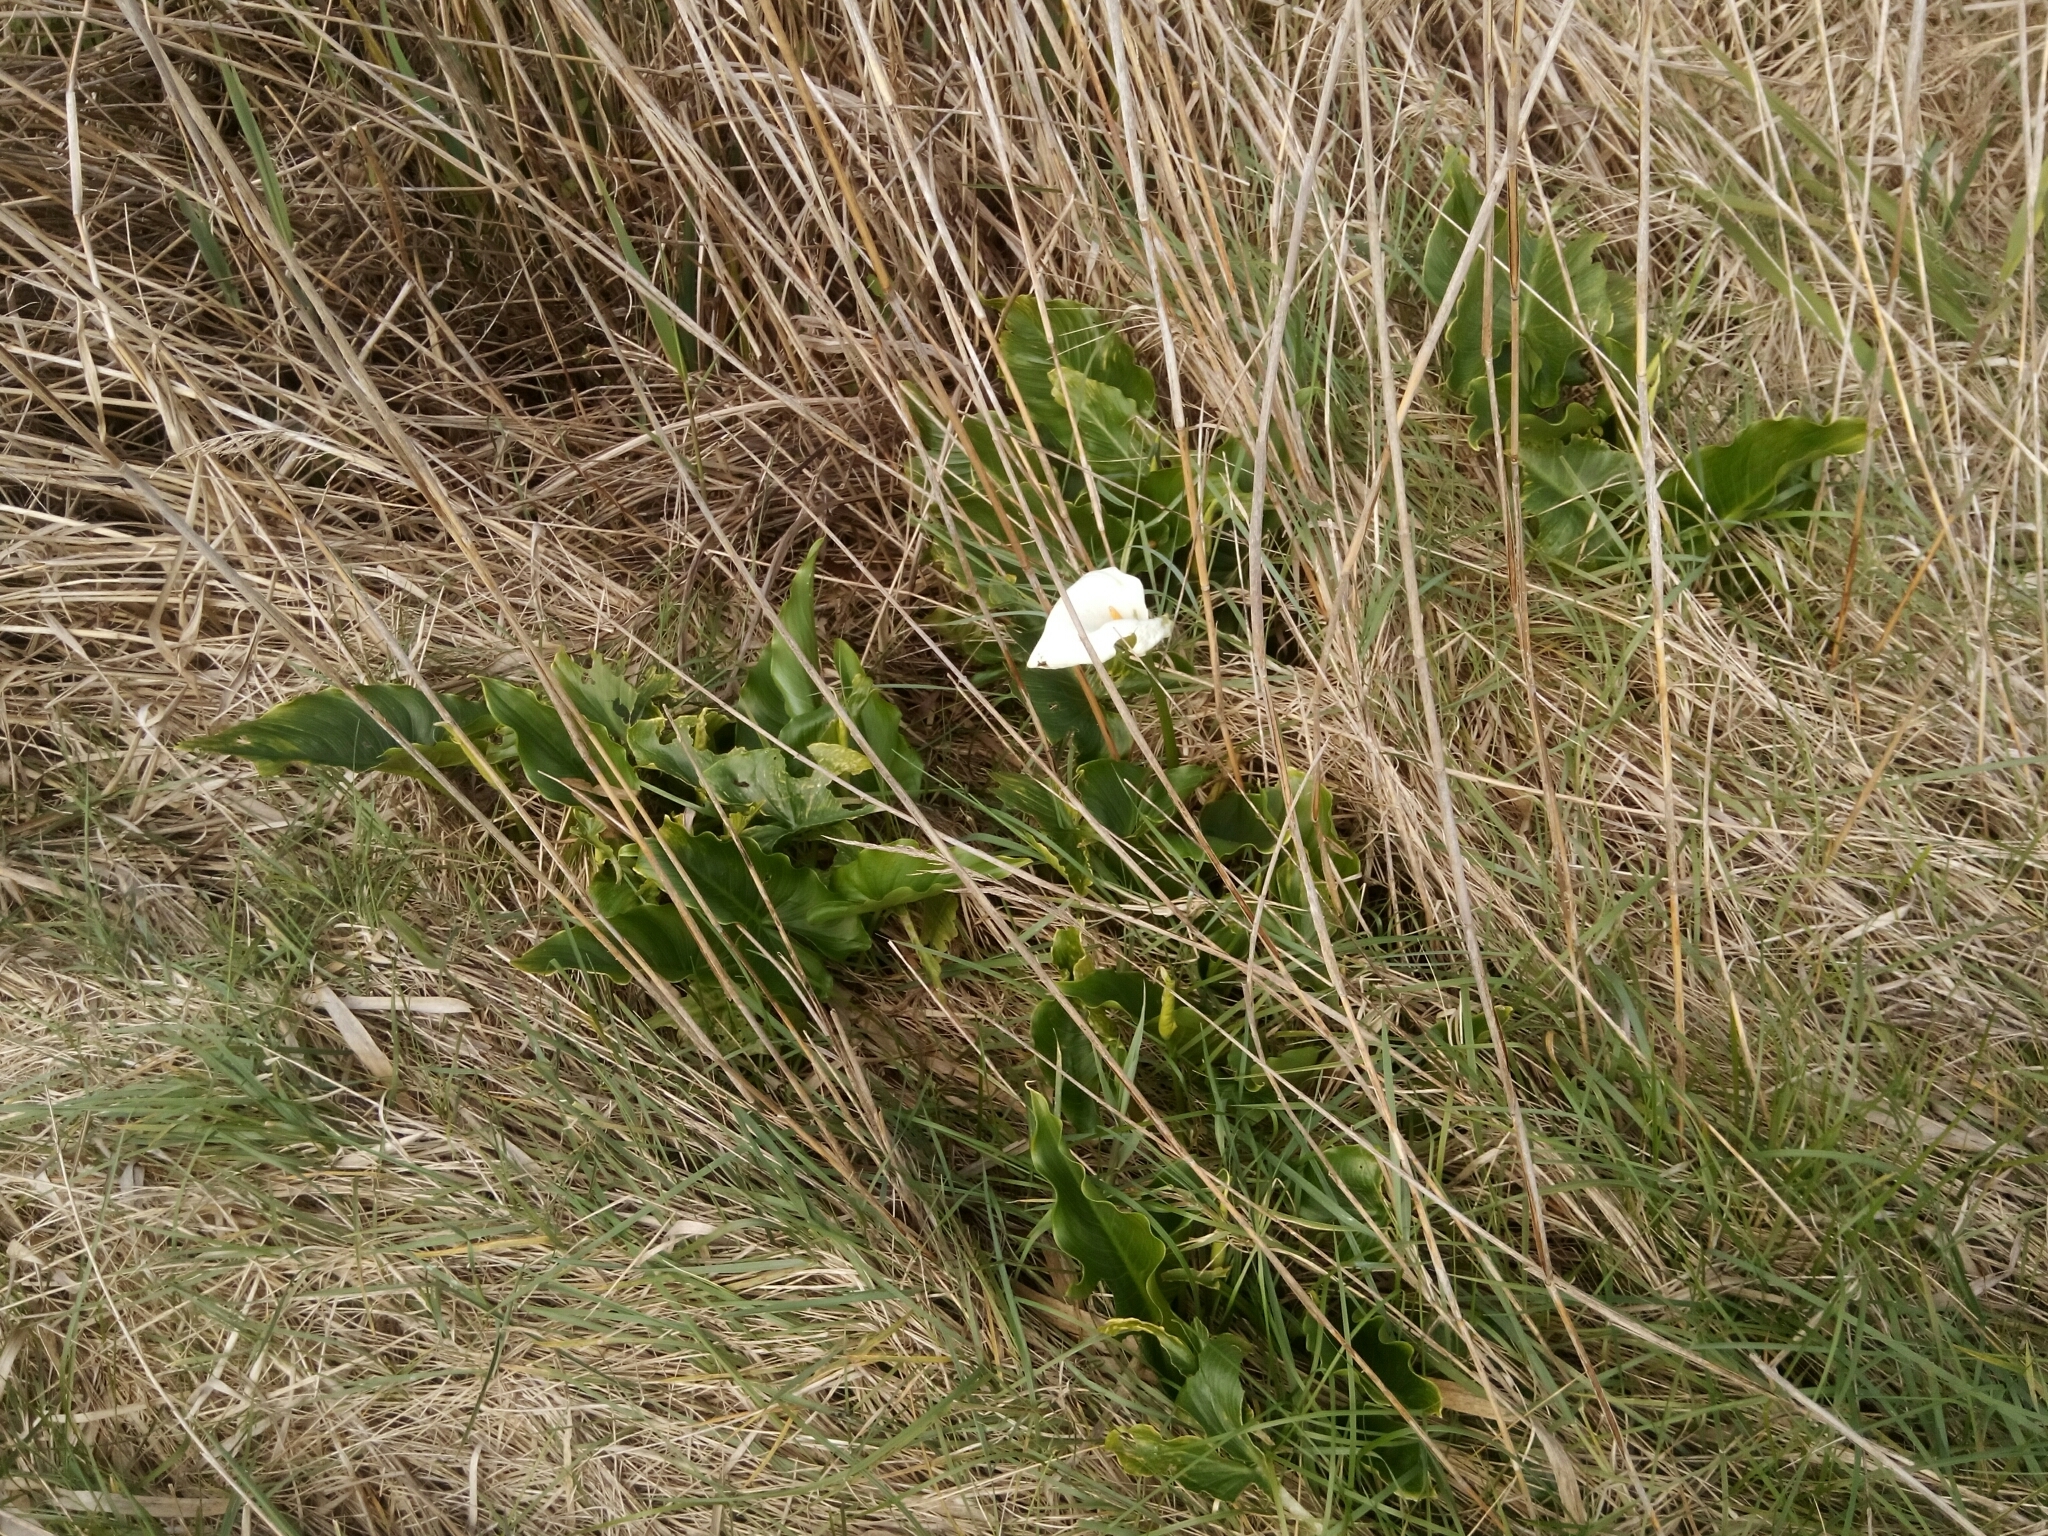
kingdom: Plantae
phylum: Tracheophyta
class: Liliopsida
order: Alismatales
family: Araceae
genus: Zantedeschia
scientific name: Zantedeschia aethiopica
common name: Altar-lily
